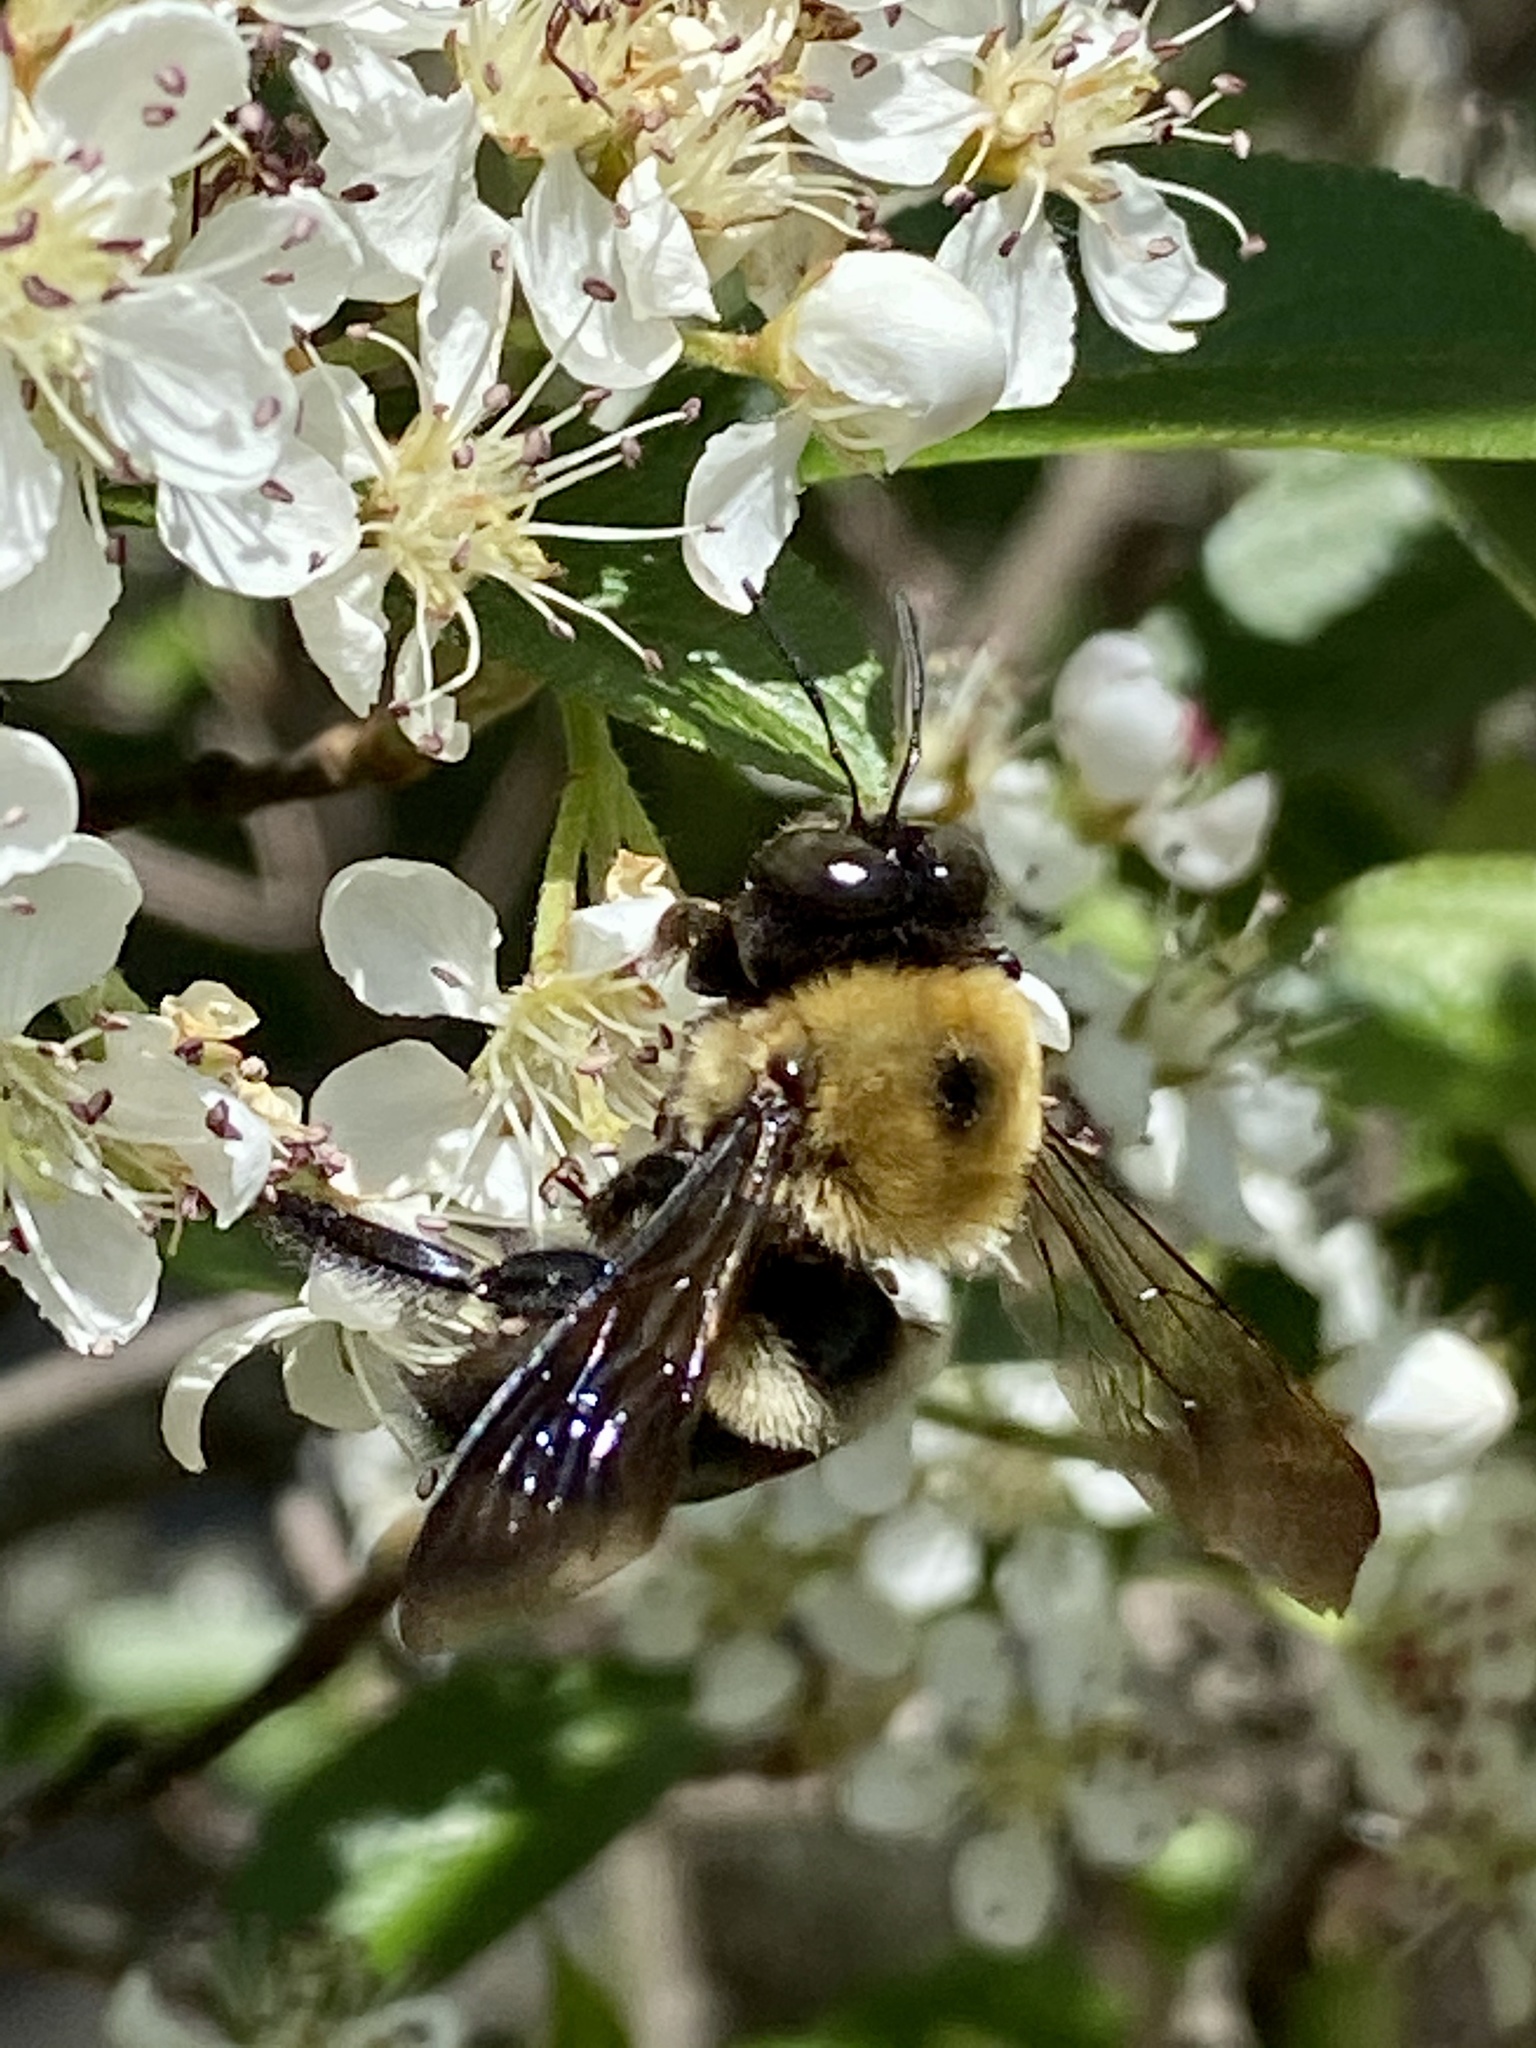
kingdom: Animalia
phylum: Arthropoda
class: Insecta
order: Hymenoptera
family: Apidae
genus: Xylocopa
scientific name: Xylocopa virginica
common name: Carpenter bee
